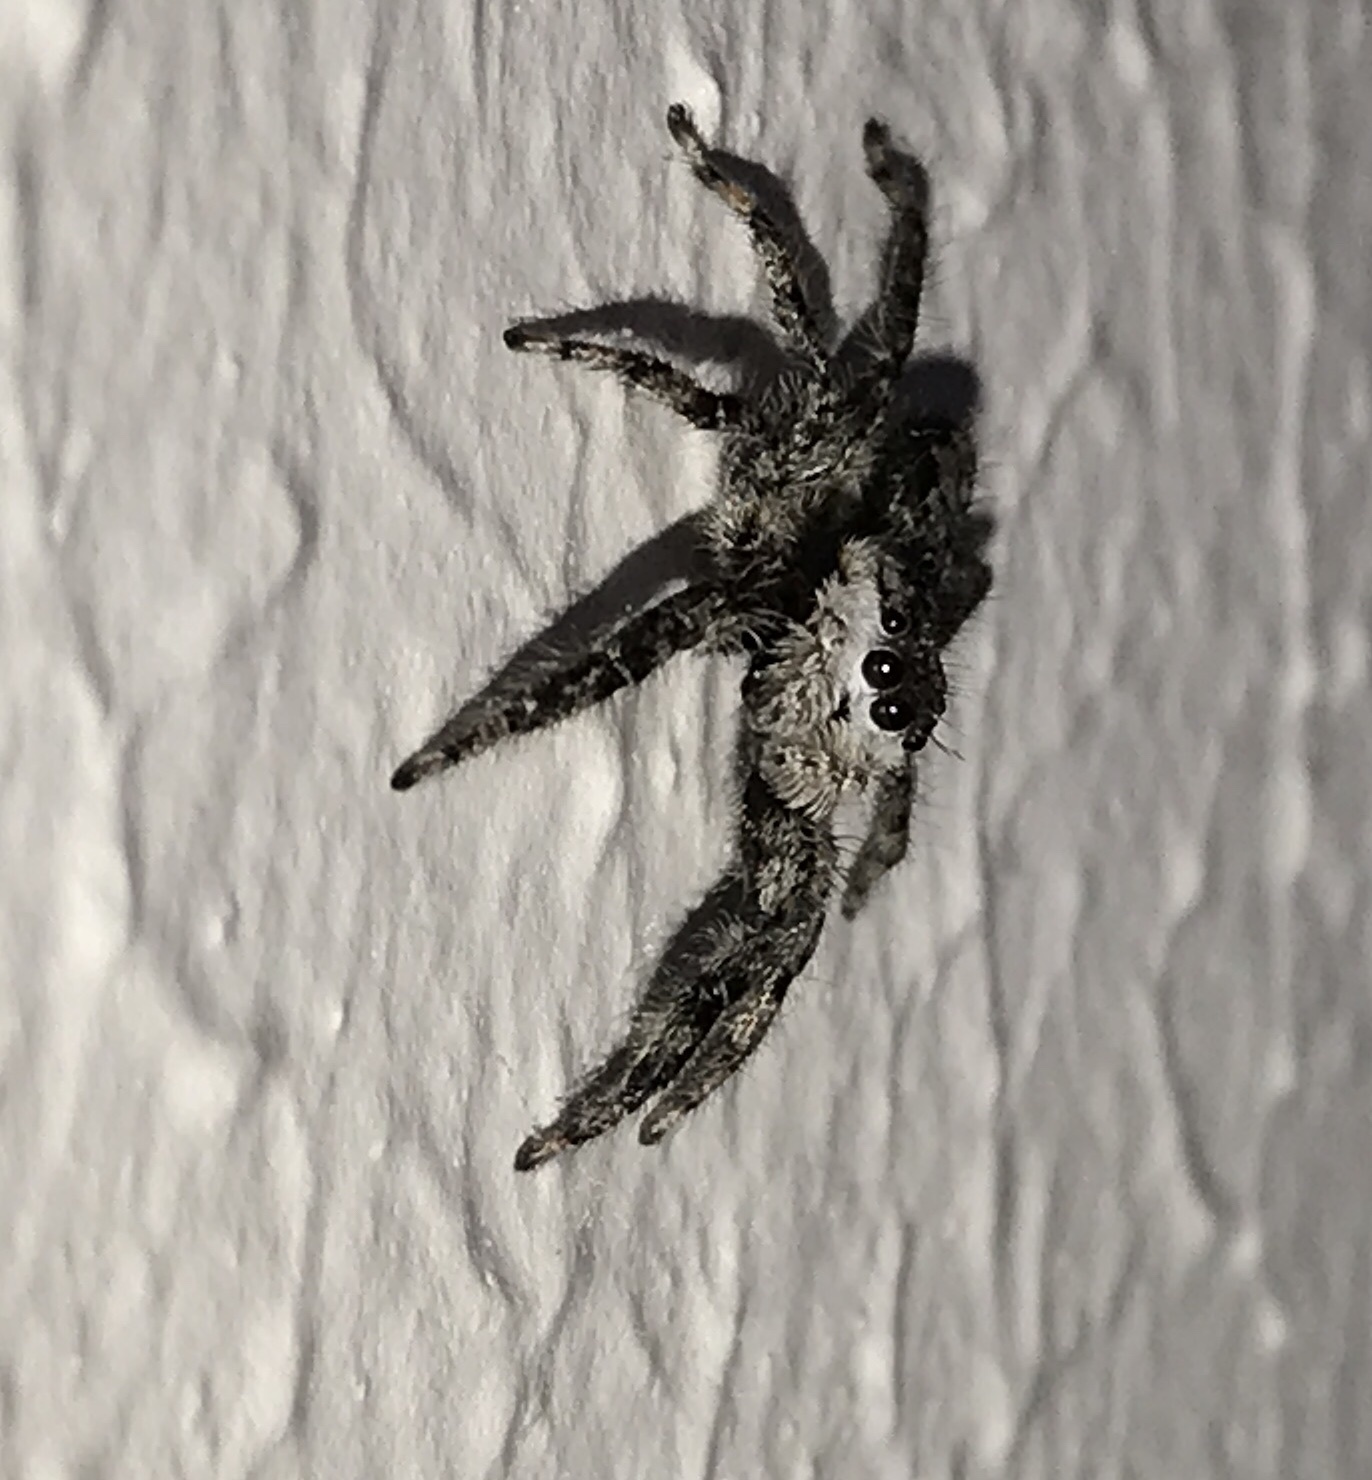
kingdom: Animalia
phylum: Arthropoda
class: Arachnida
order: Araneae
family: Salticidae
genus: Platycryptus
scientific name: Platycryptus undatus
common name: Tan jumping spider
